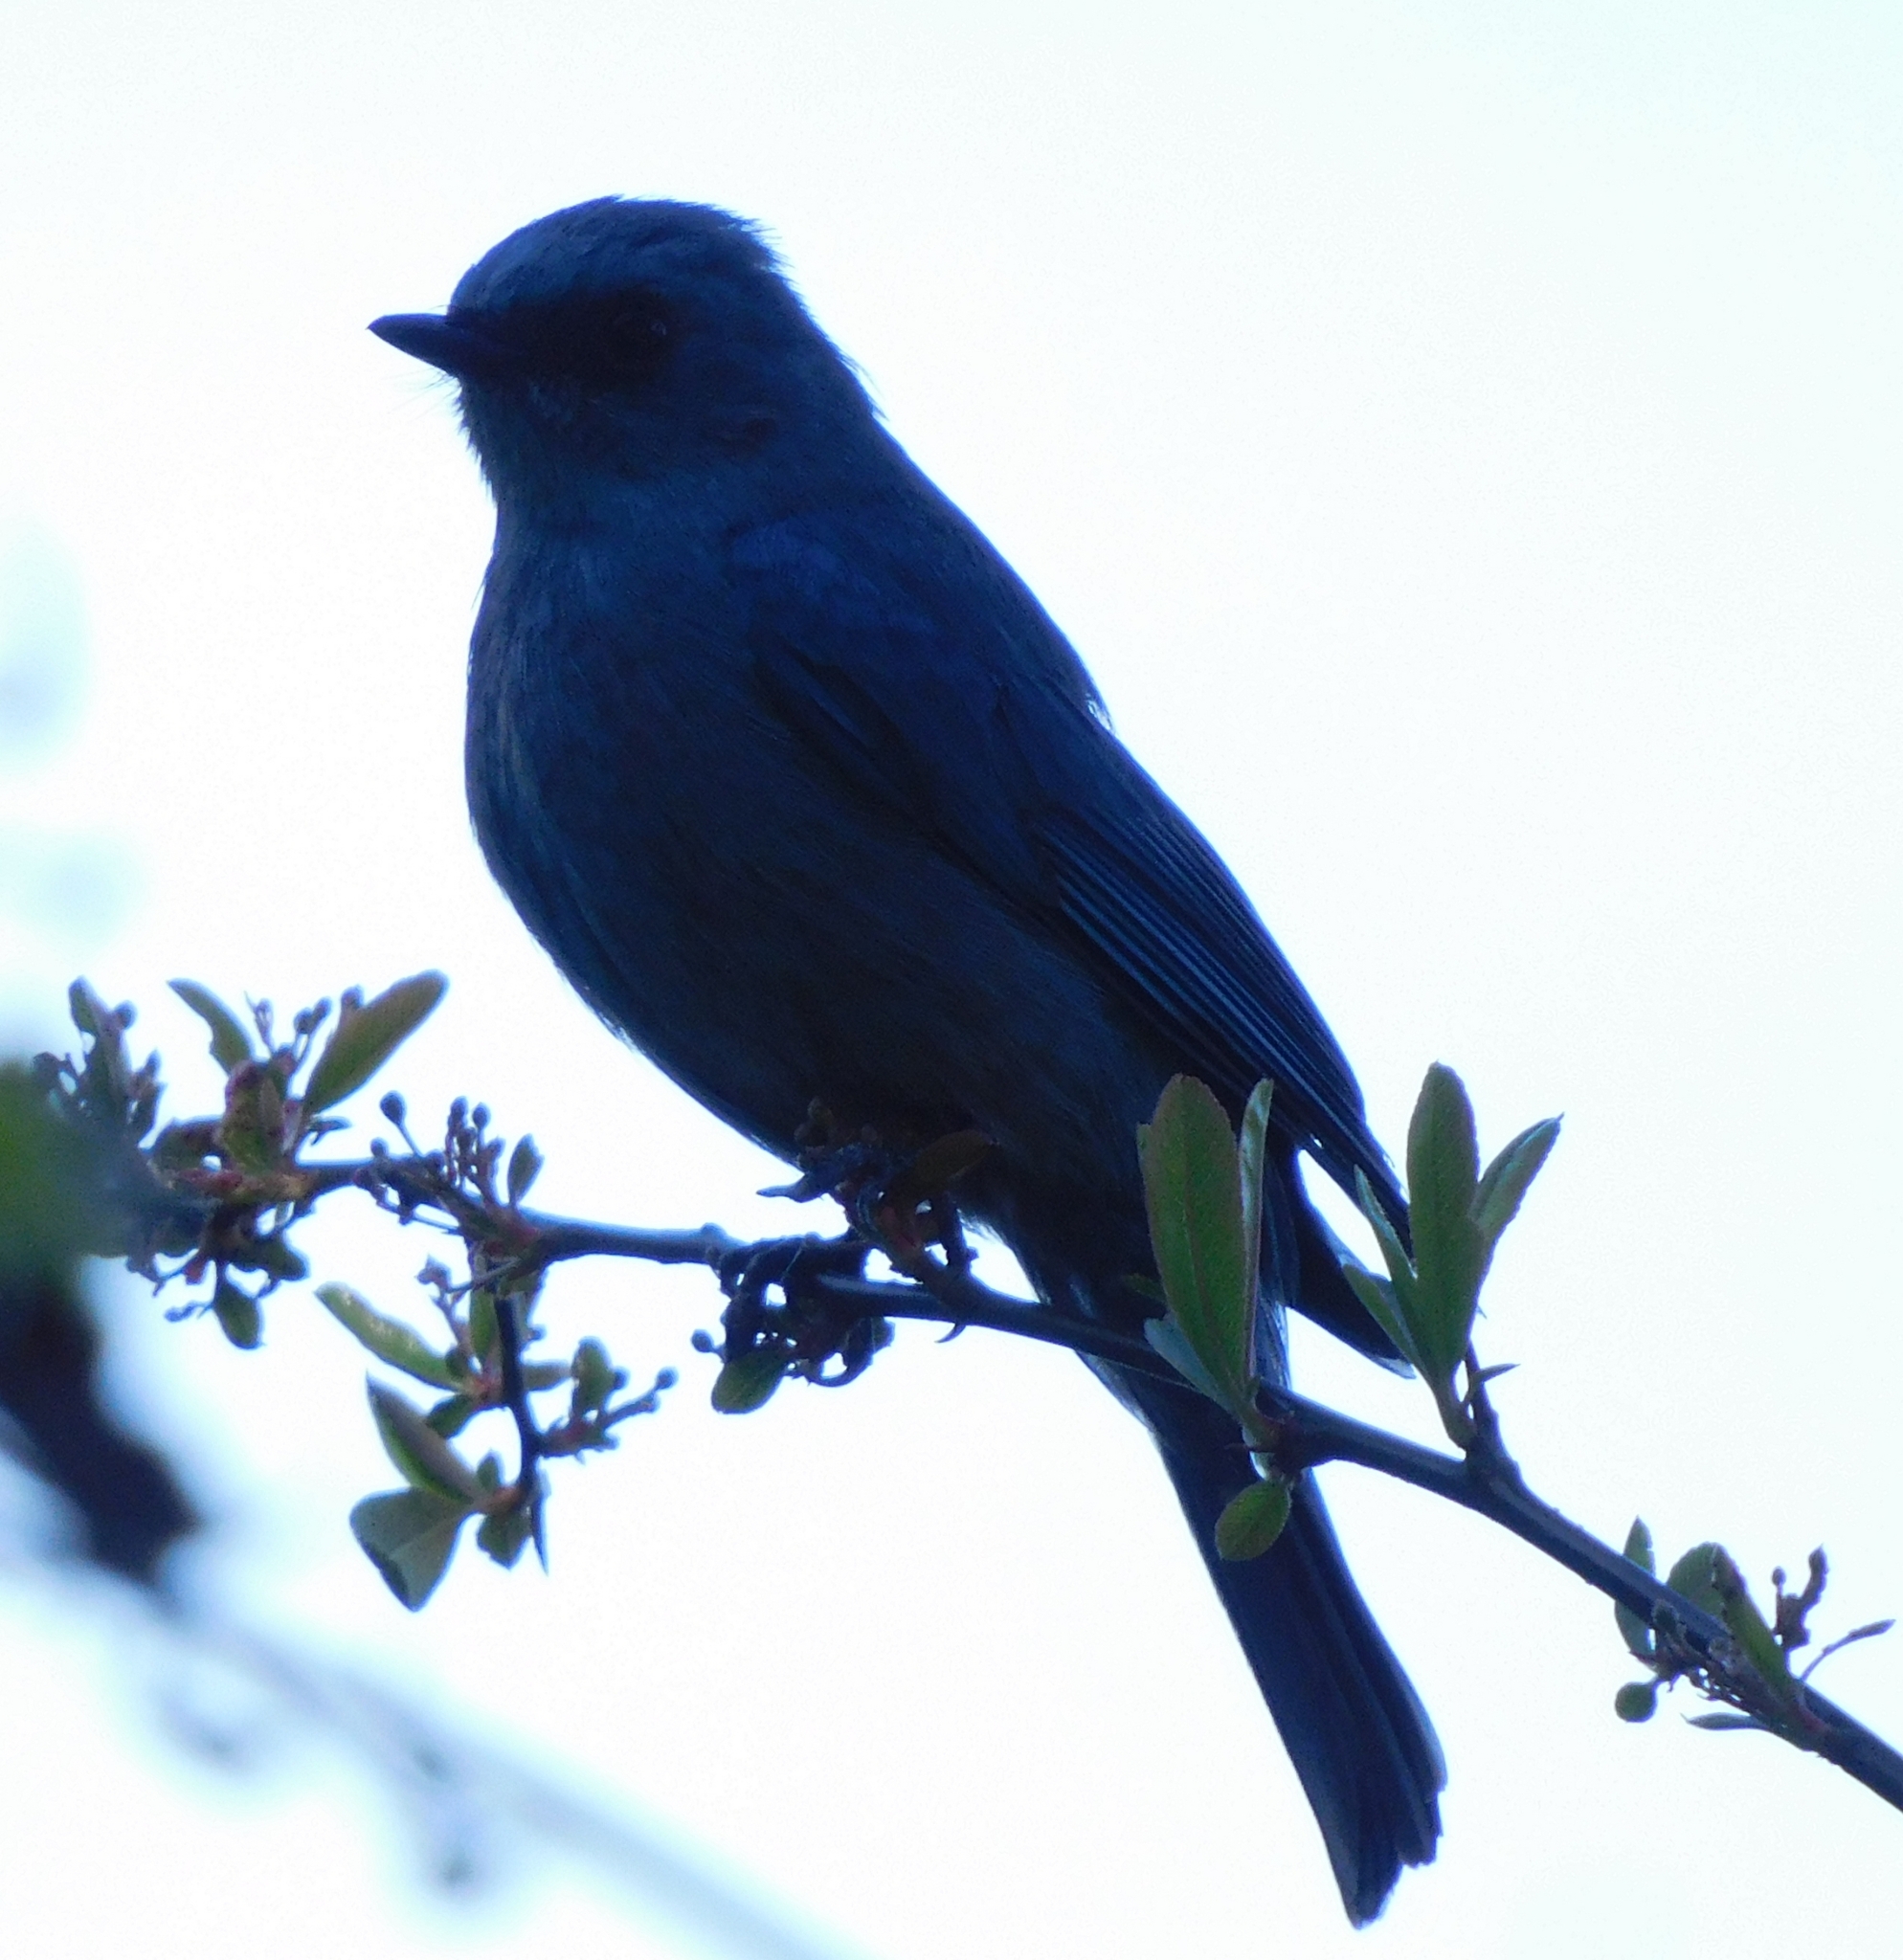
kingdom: Animalia
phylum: Chordata
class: Aves
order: Passeriformes
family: Muscicapidae
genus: Eumyias
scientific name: Eumyias thalassinus
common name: Verditer flycatcher
